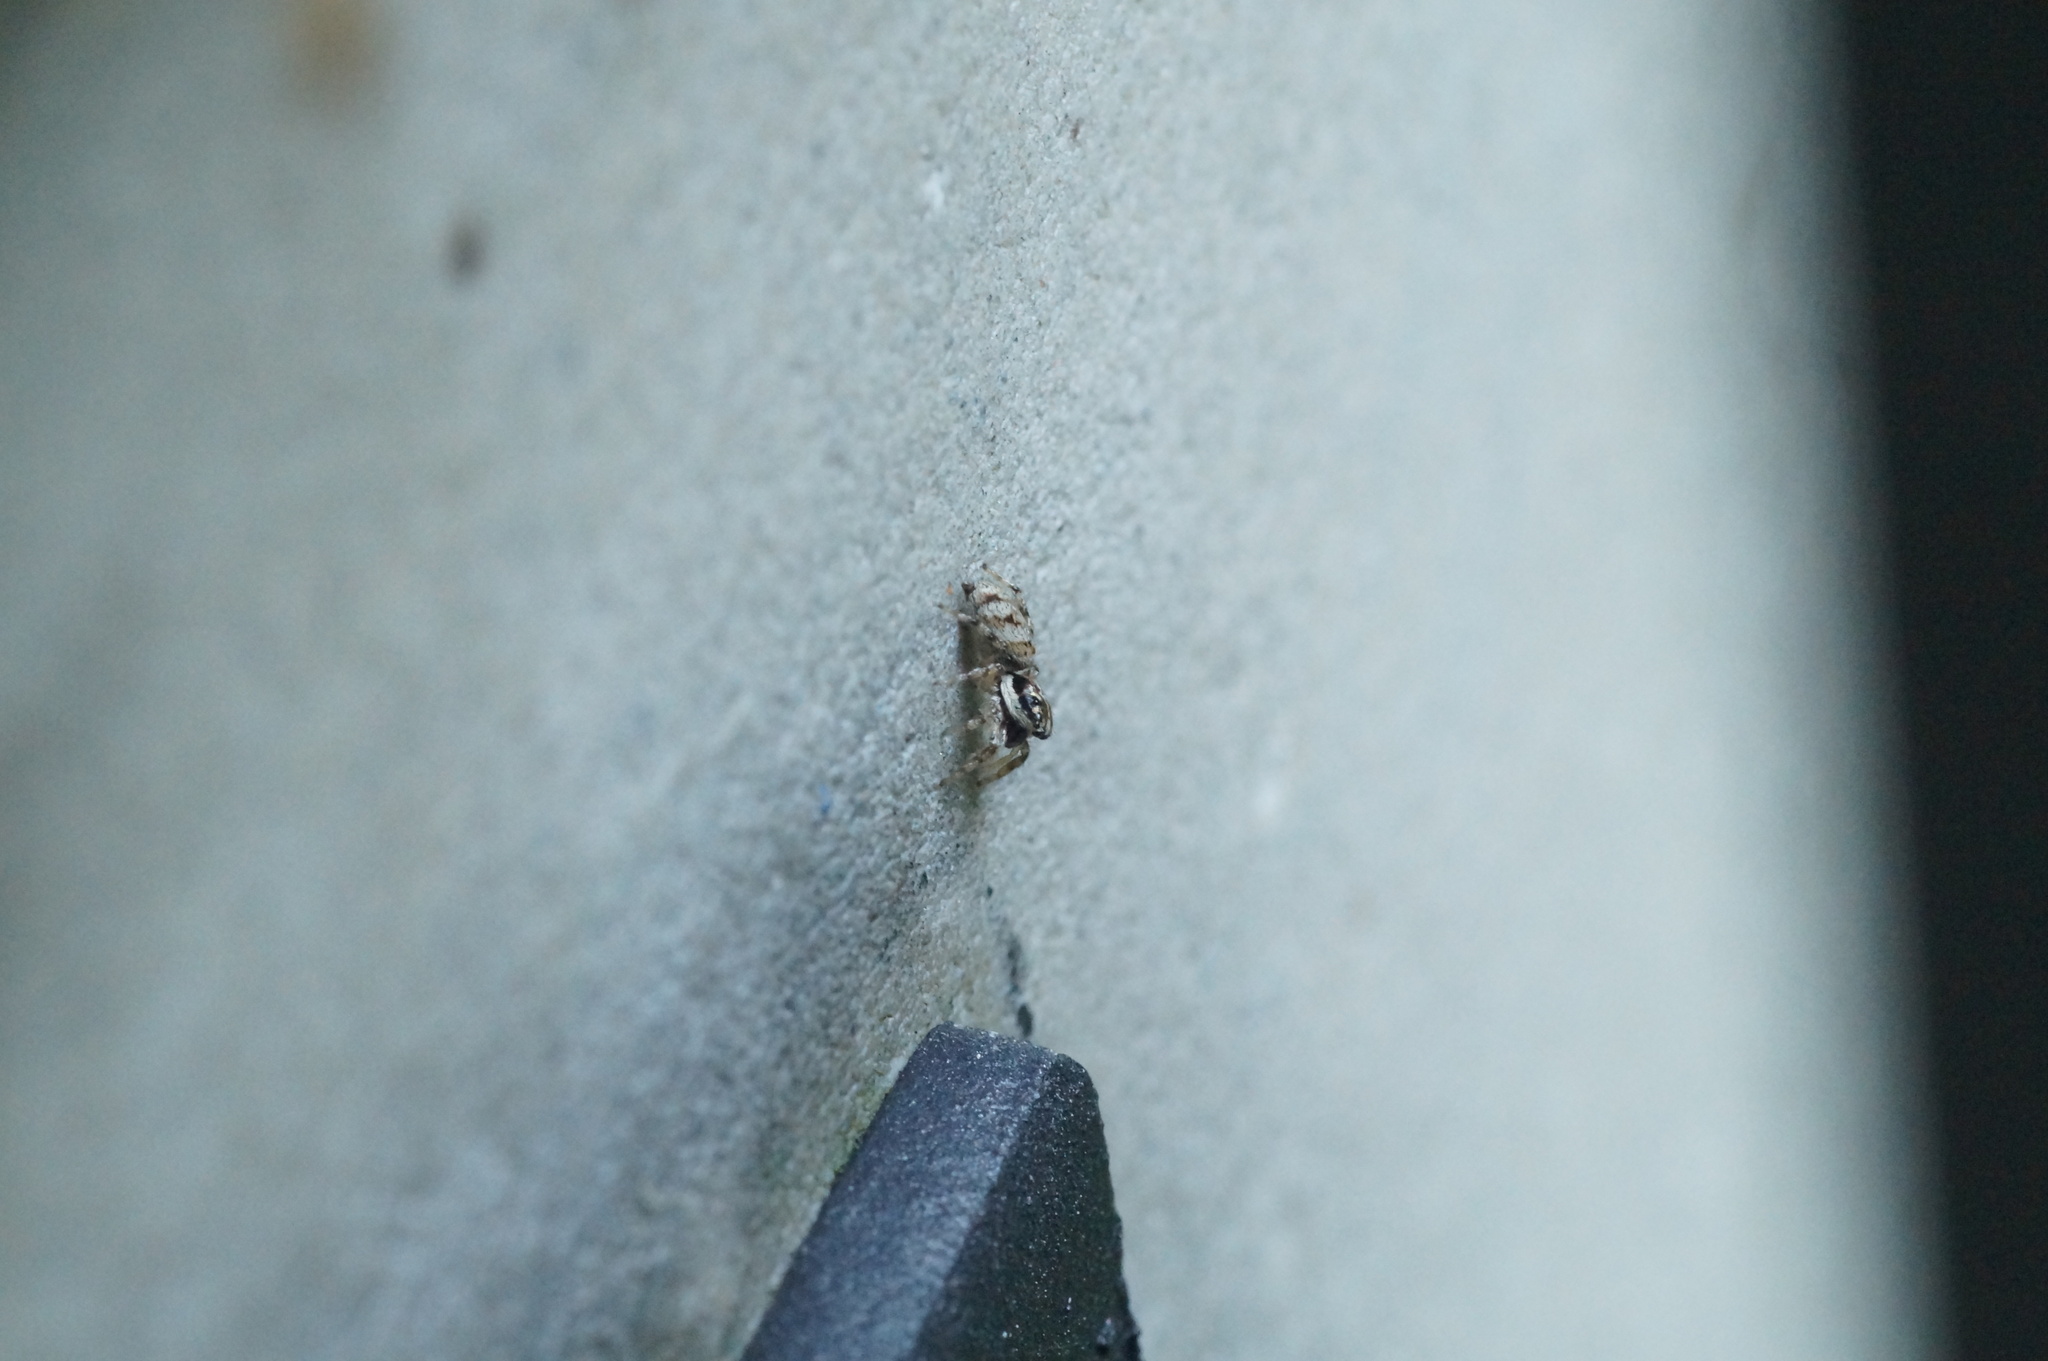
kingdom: Animalia
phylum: Arthropoda
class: Arachnida
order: Araneae
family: Salticidae
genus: Salticus
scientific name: Salticus cingulatus
